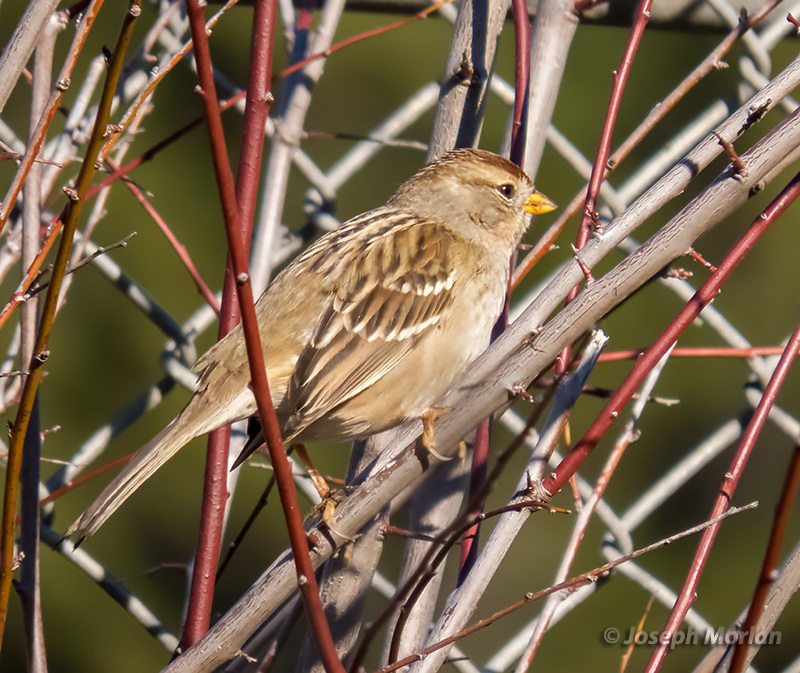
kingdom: Animalia
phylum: Chordata
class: Aves
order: Passeriformes
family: Passerellidae
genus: Zonotrichia
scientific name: Zonotrichia leucophrys
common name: White-crowned sparrow
